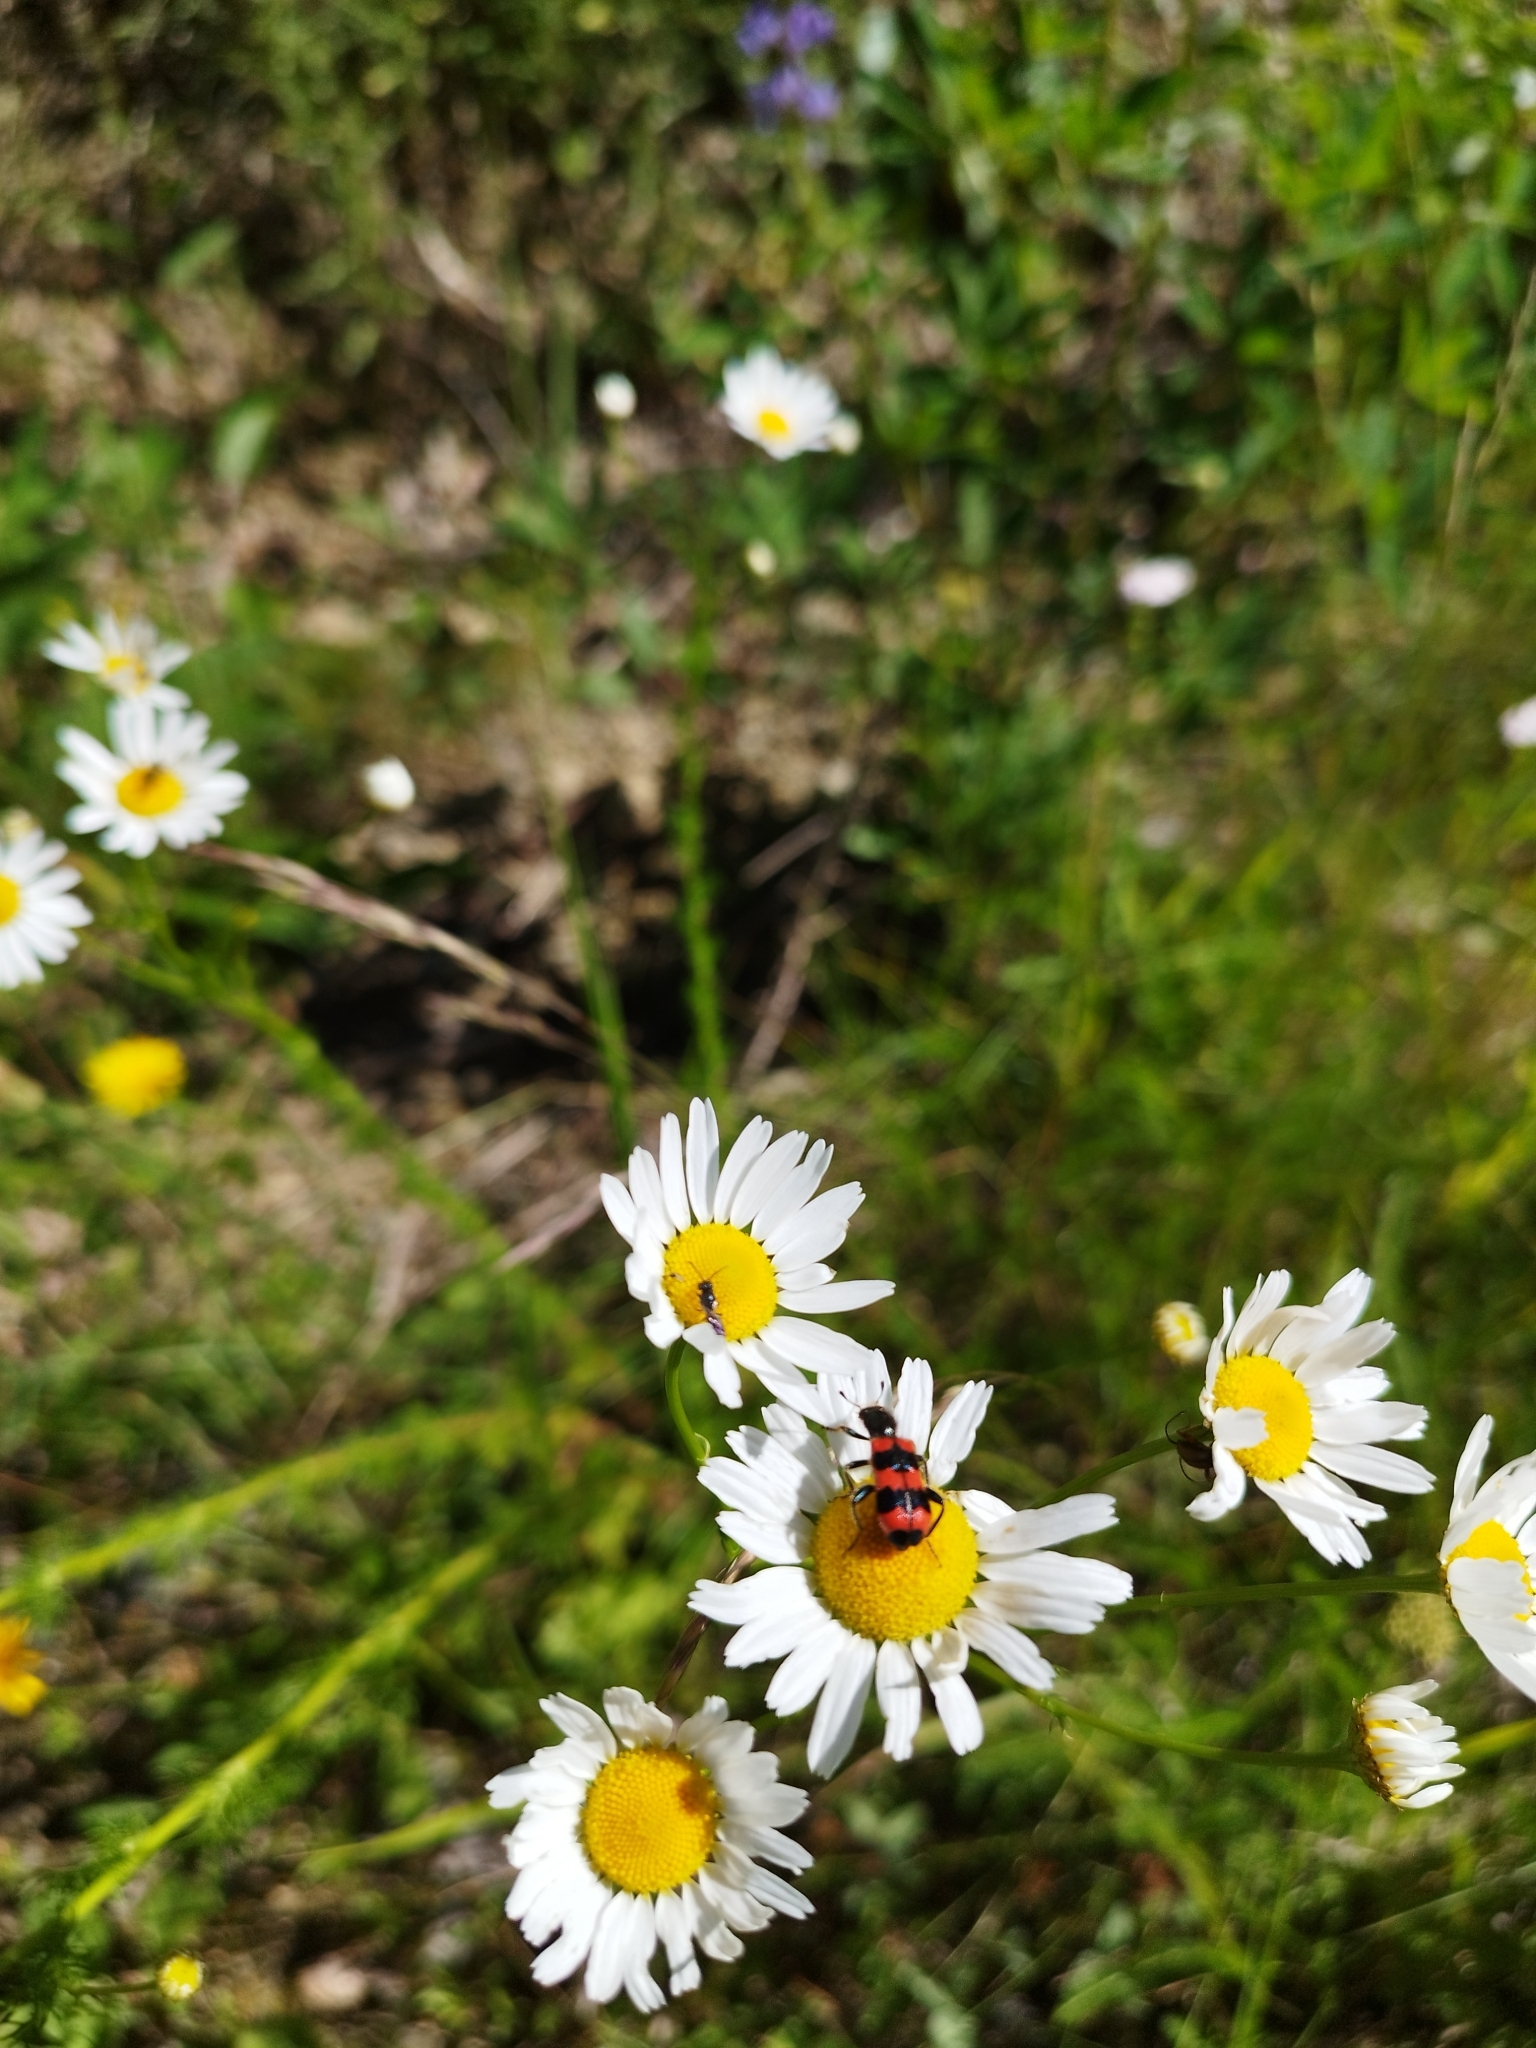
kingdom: Animalia
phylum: Arthropoda
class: Insecta
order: Coleoptera
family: Cleridae
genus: Trichodes
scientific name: Trichodes apiarius
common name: Bee-eating beetle
